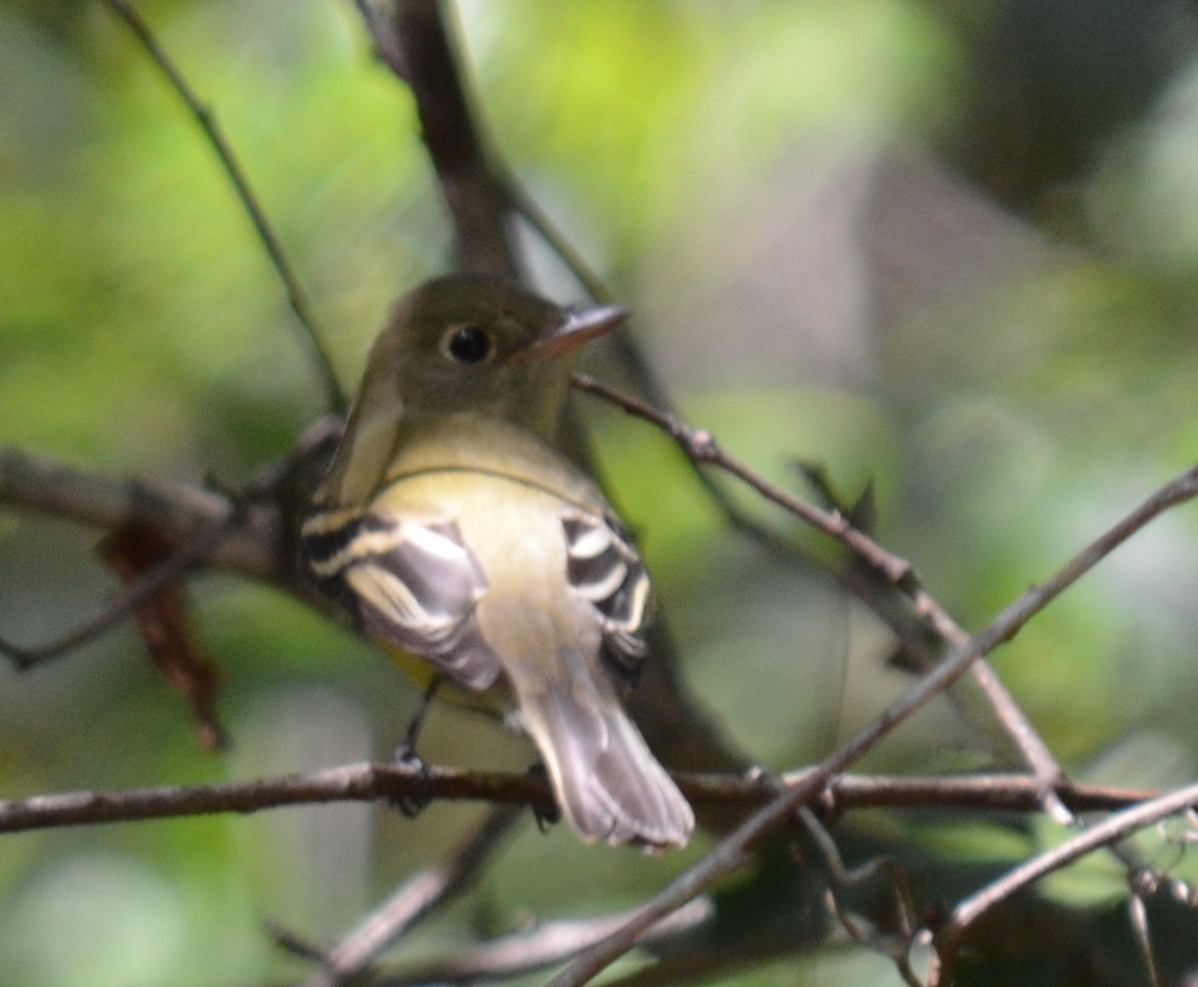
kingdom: Animalia
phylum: Chordata
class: Aves
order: Passeriformes
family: Tyrannidae
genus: Empidonax
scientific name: Empidonax flaviventris
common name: Yellow-bellied flycatcher
